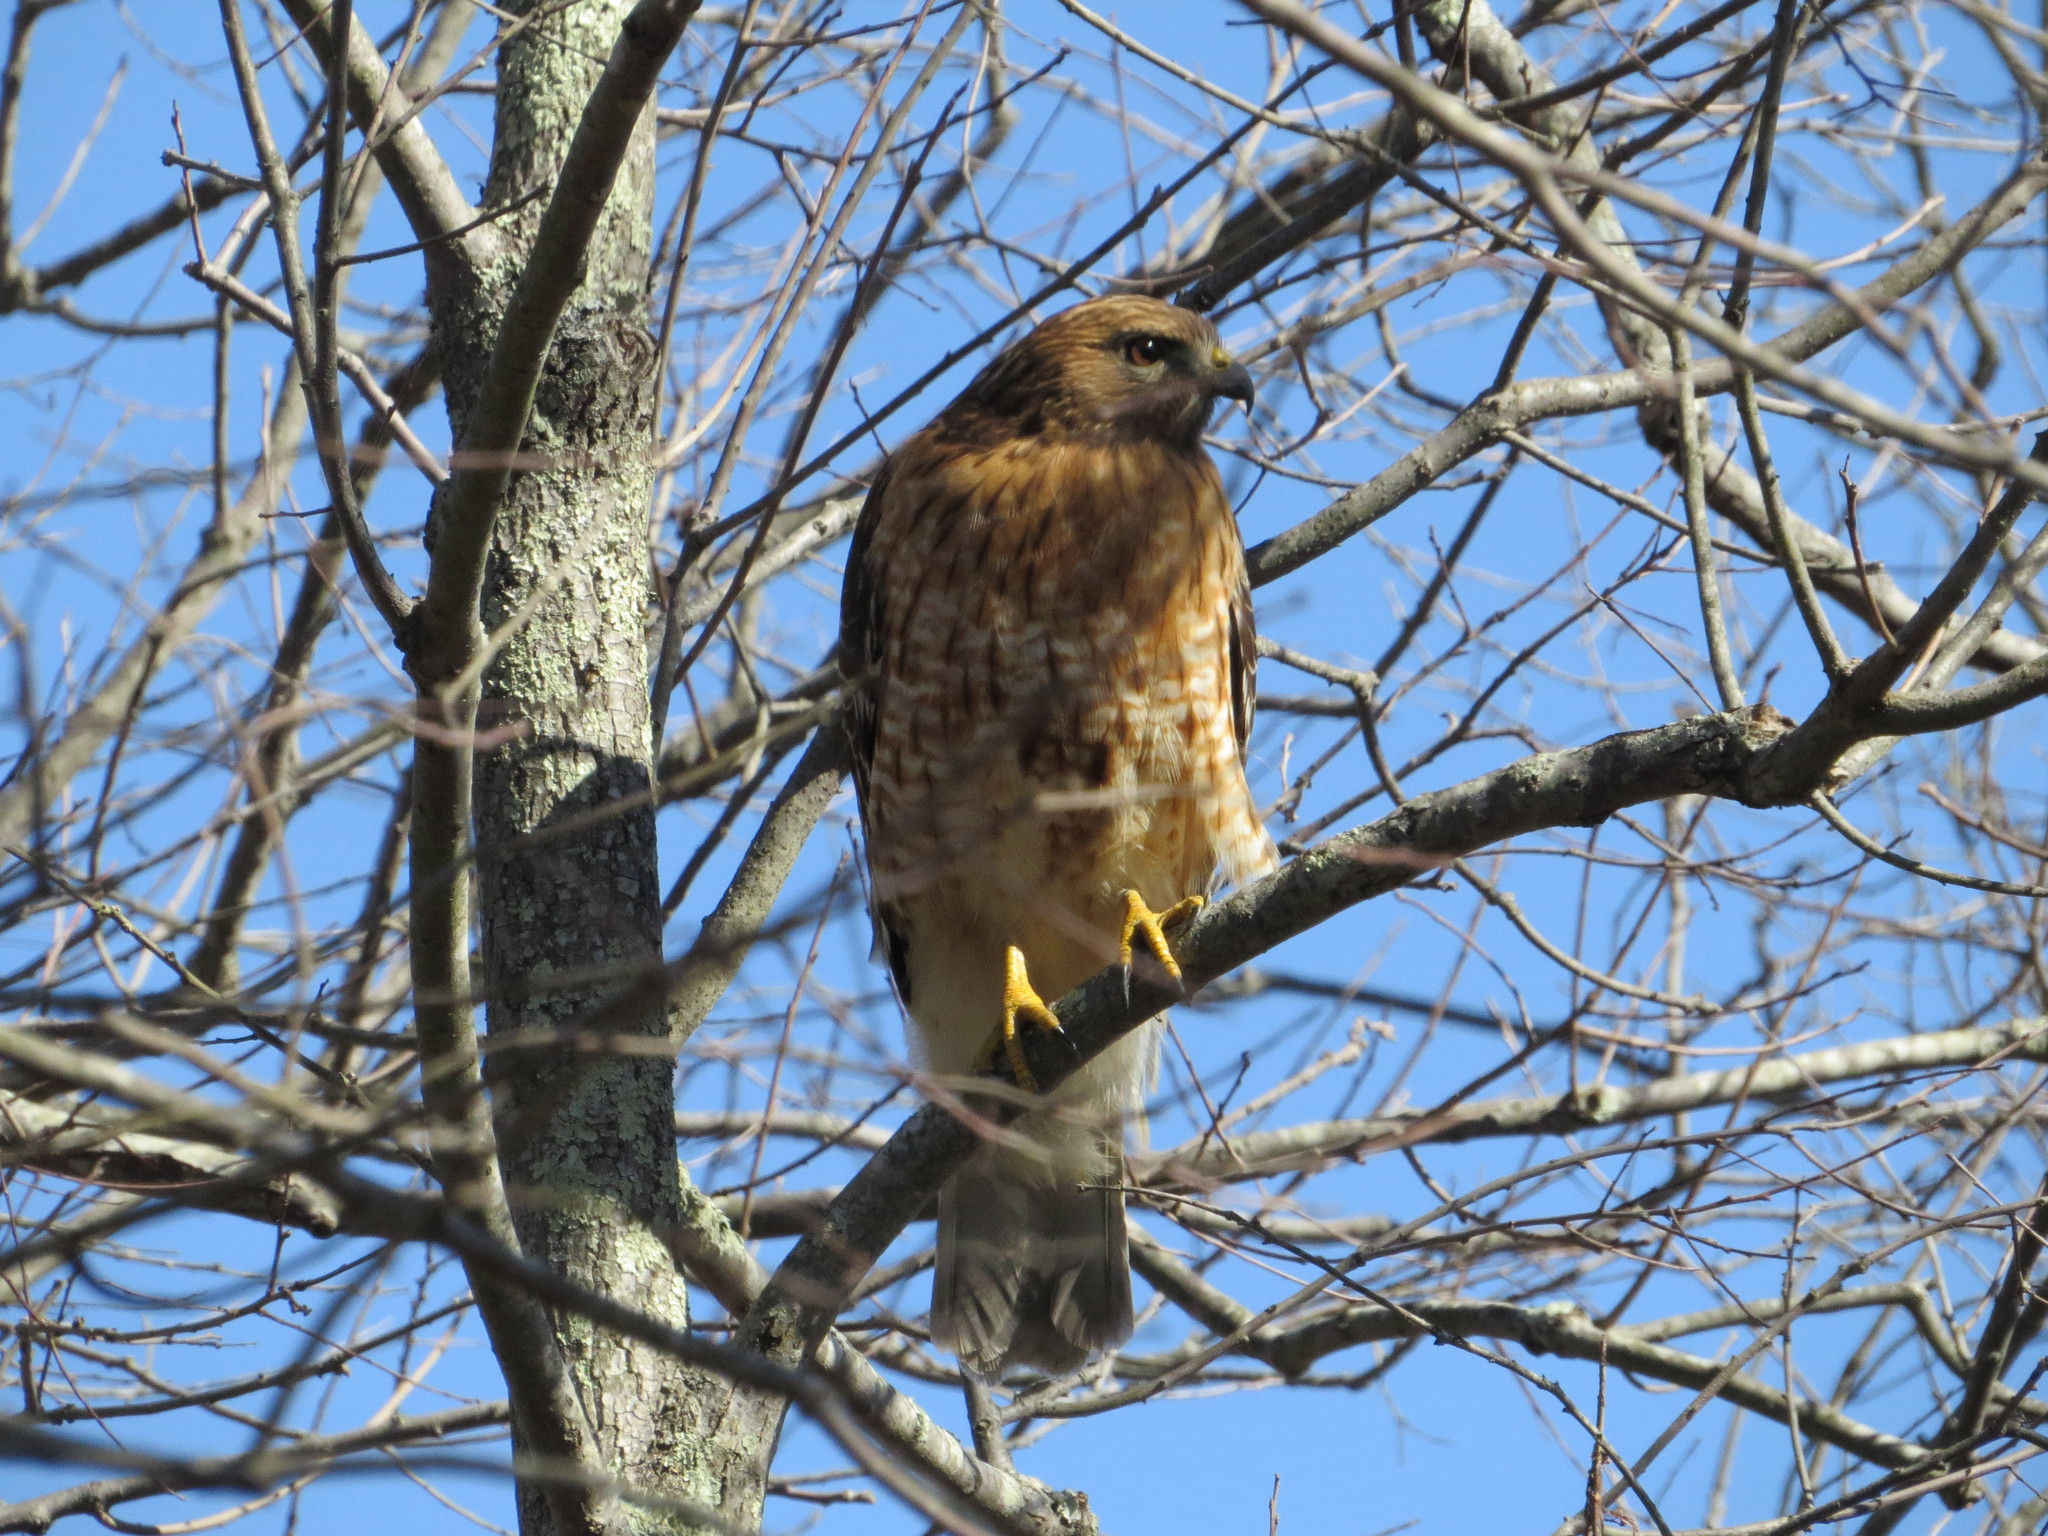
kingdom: Animalia
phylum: Chordata
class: Aves
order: Accipitriformes
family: Accipitridae
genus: Buteo
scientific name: Buteo lineatus
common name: Red-shouldered hawk
